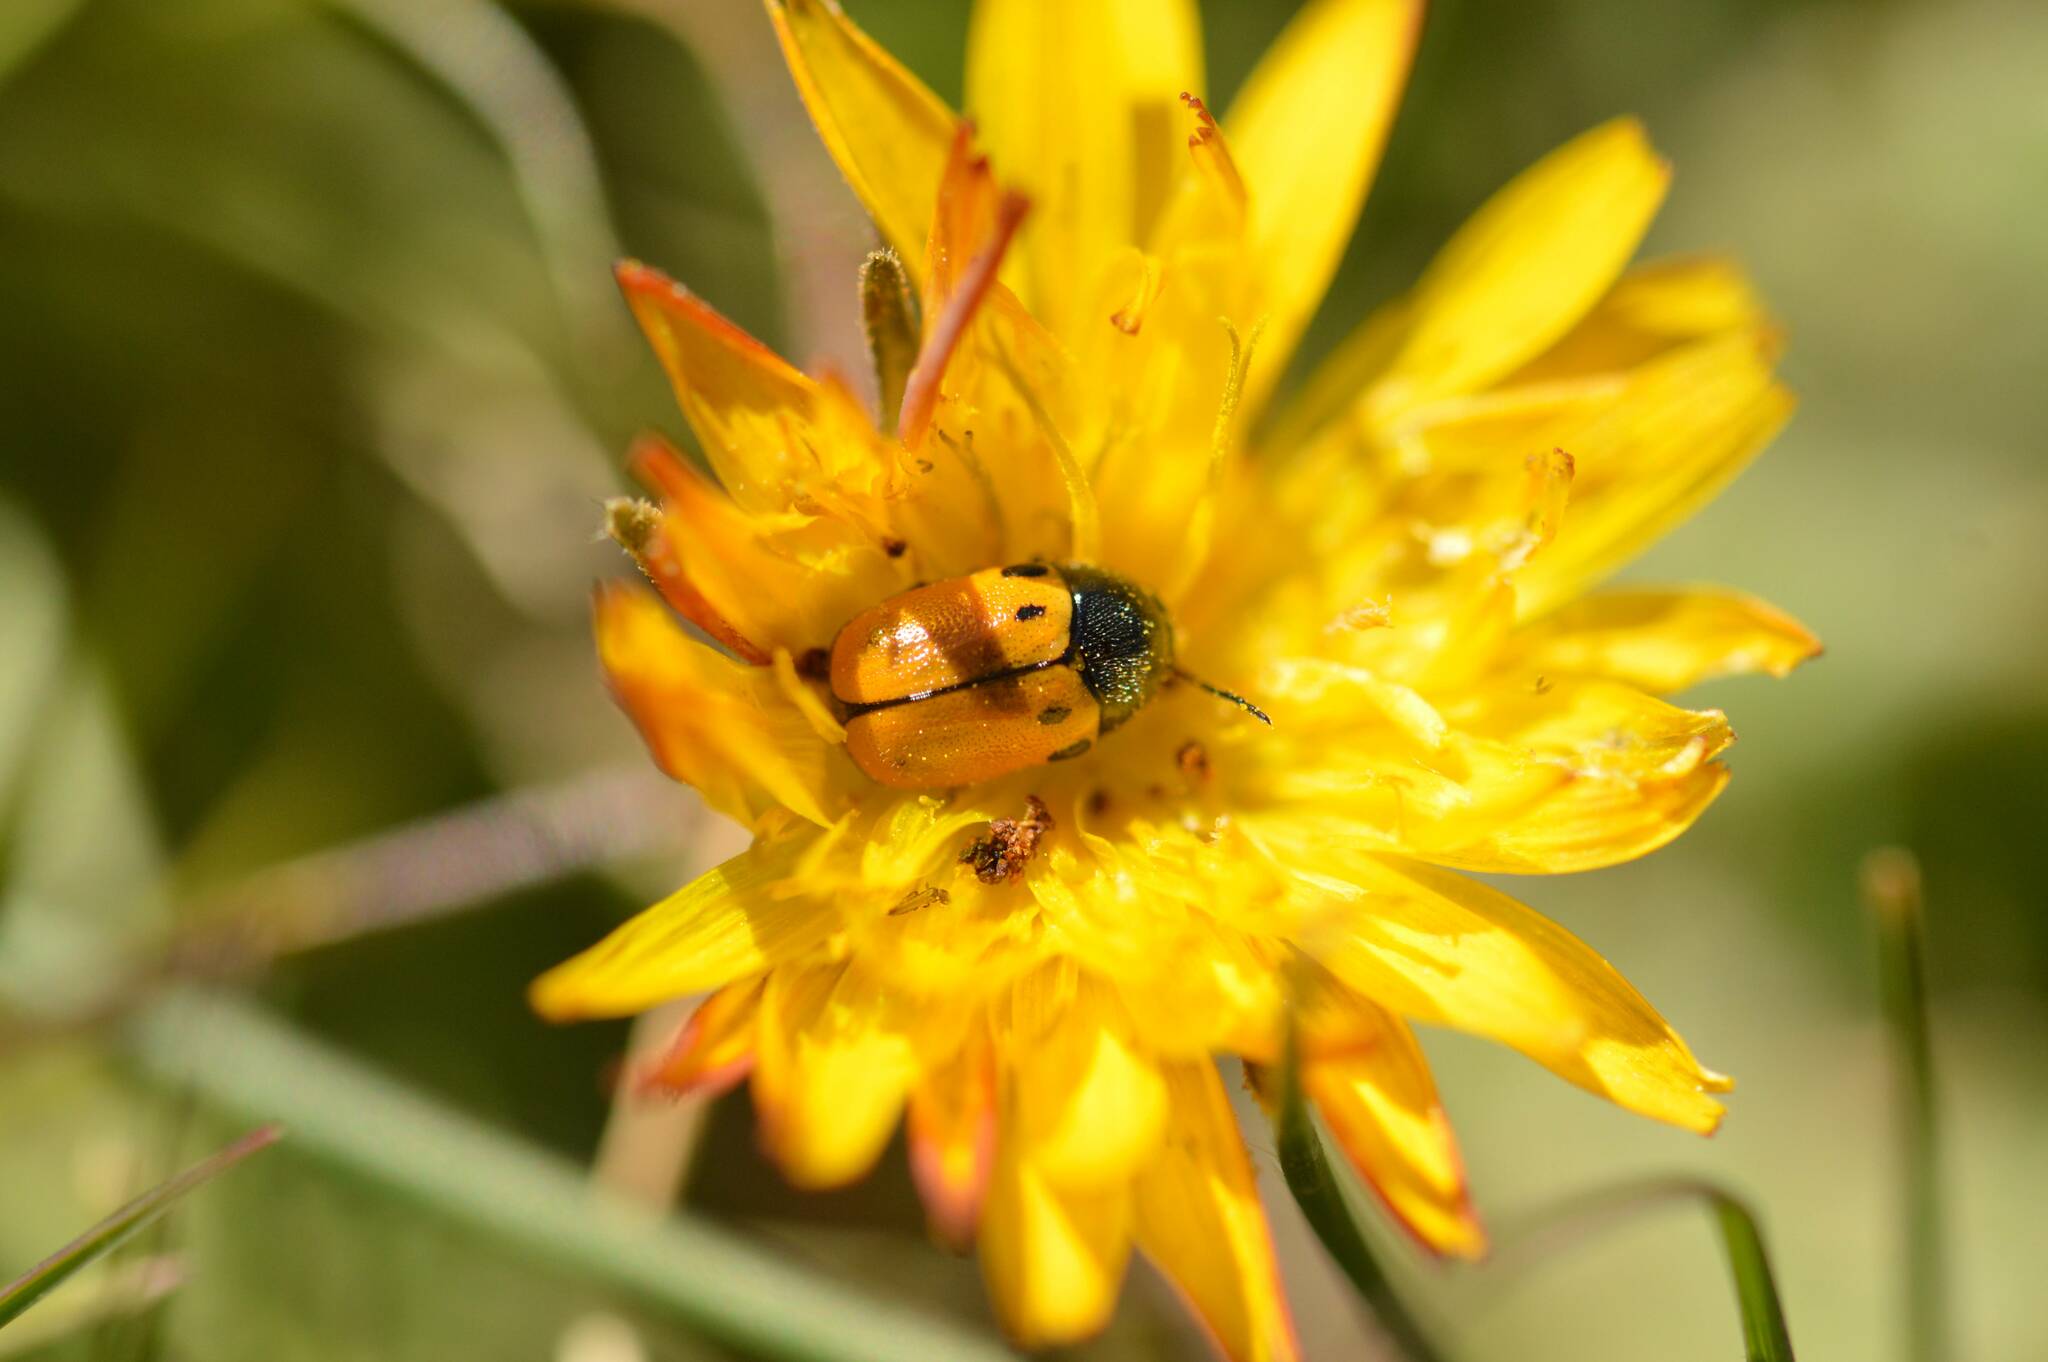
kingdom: Animalia
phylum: Arthropoda
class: Insecta
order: Coleoptera
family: Chrysomelidae
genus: Cryptocephalus
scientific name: Cryptocephalus rugicollis
